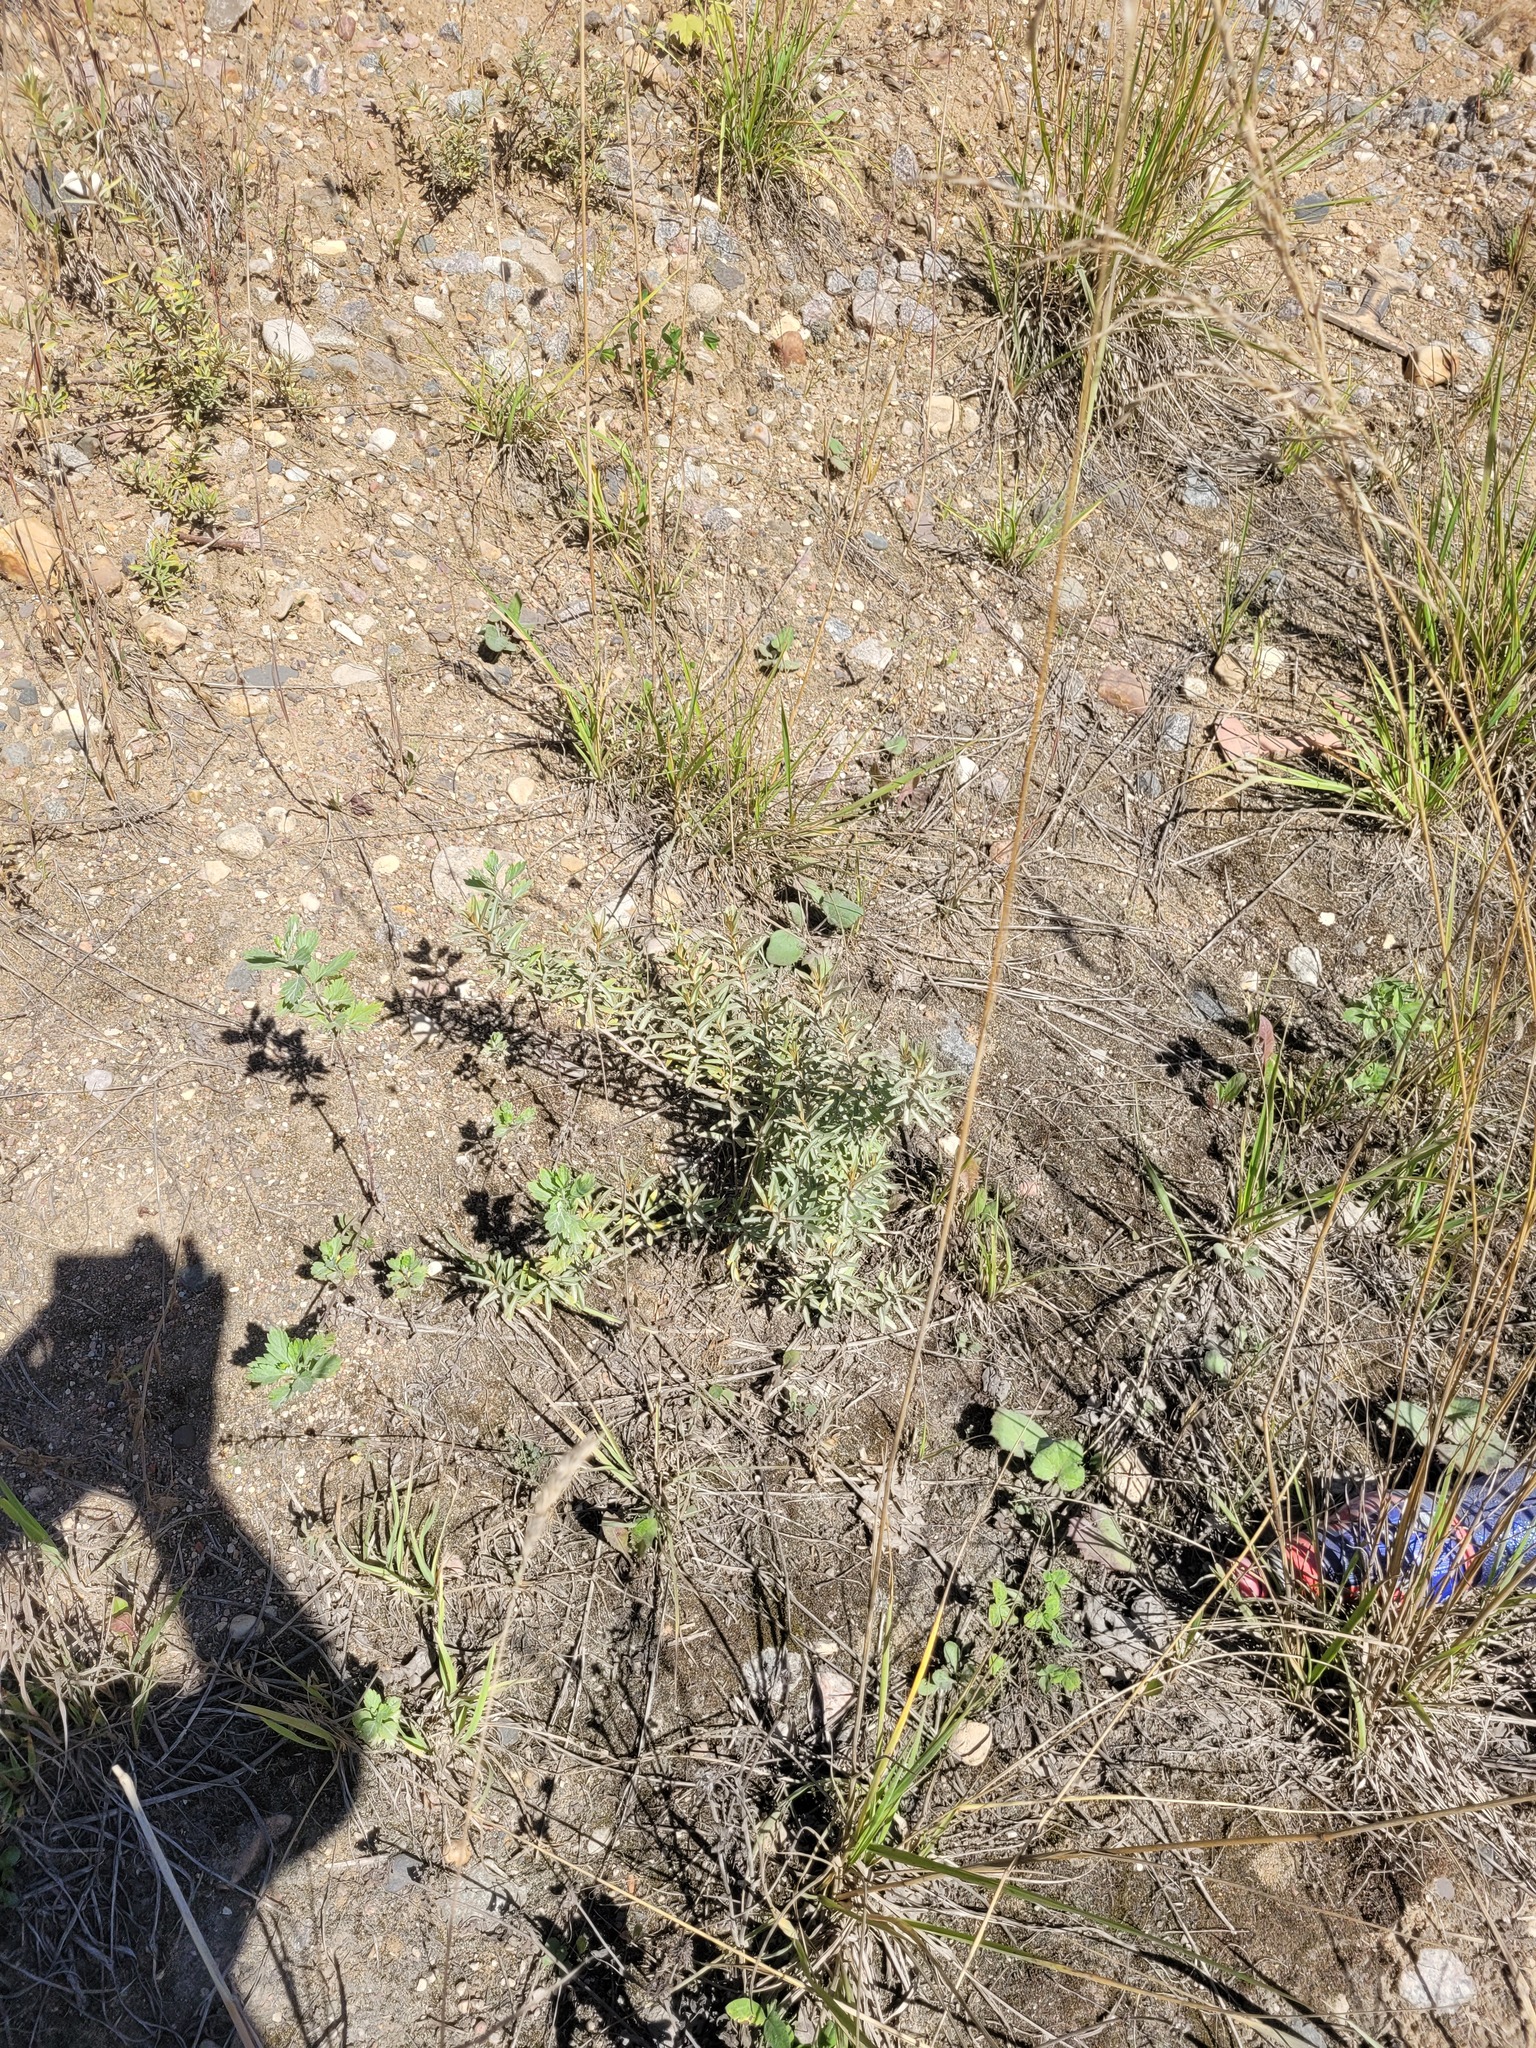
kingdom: Plantae
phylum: Tracheophyta
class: Magnoliopsida
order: Rosales
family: Elaeagnaceae
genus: Hippophae
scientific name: Hippophae rhamnoides
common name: Sea-buckthorn
